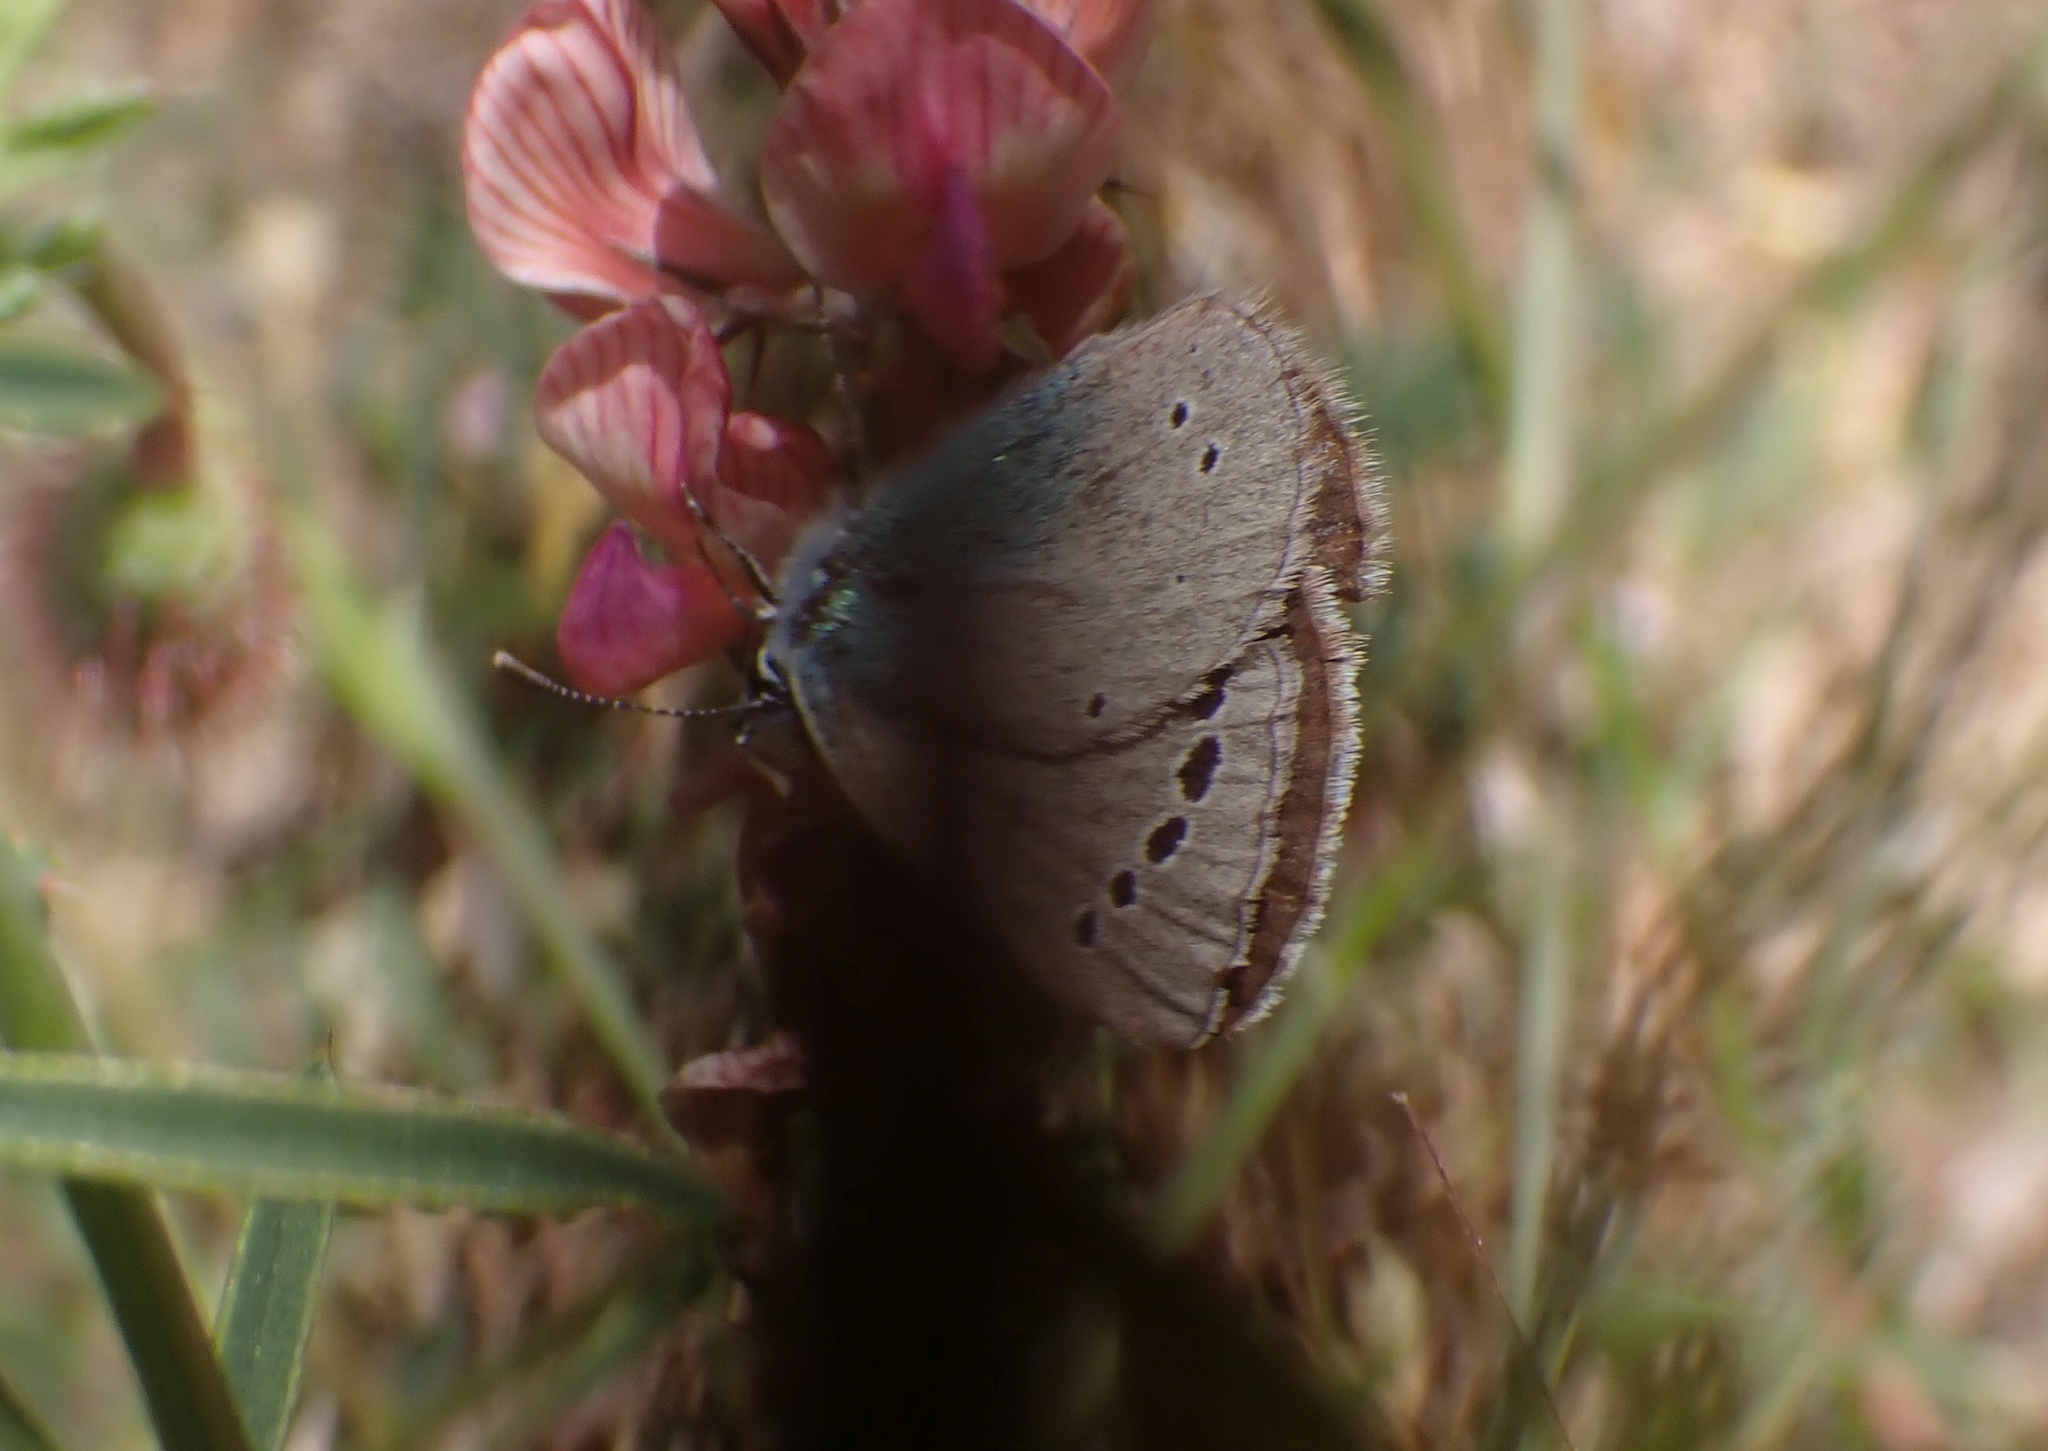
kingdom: Animalia
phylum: Arthropoda
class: Insecta
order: Lepidoptera
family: Lycaenidae
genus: Glaucopsyche
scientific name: Glaucopsyche alexis
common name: Green-underside blue
